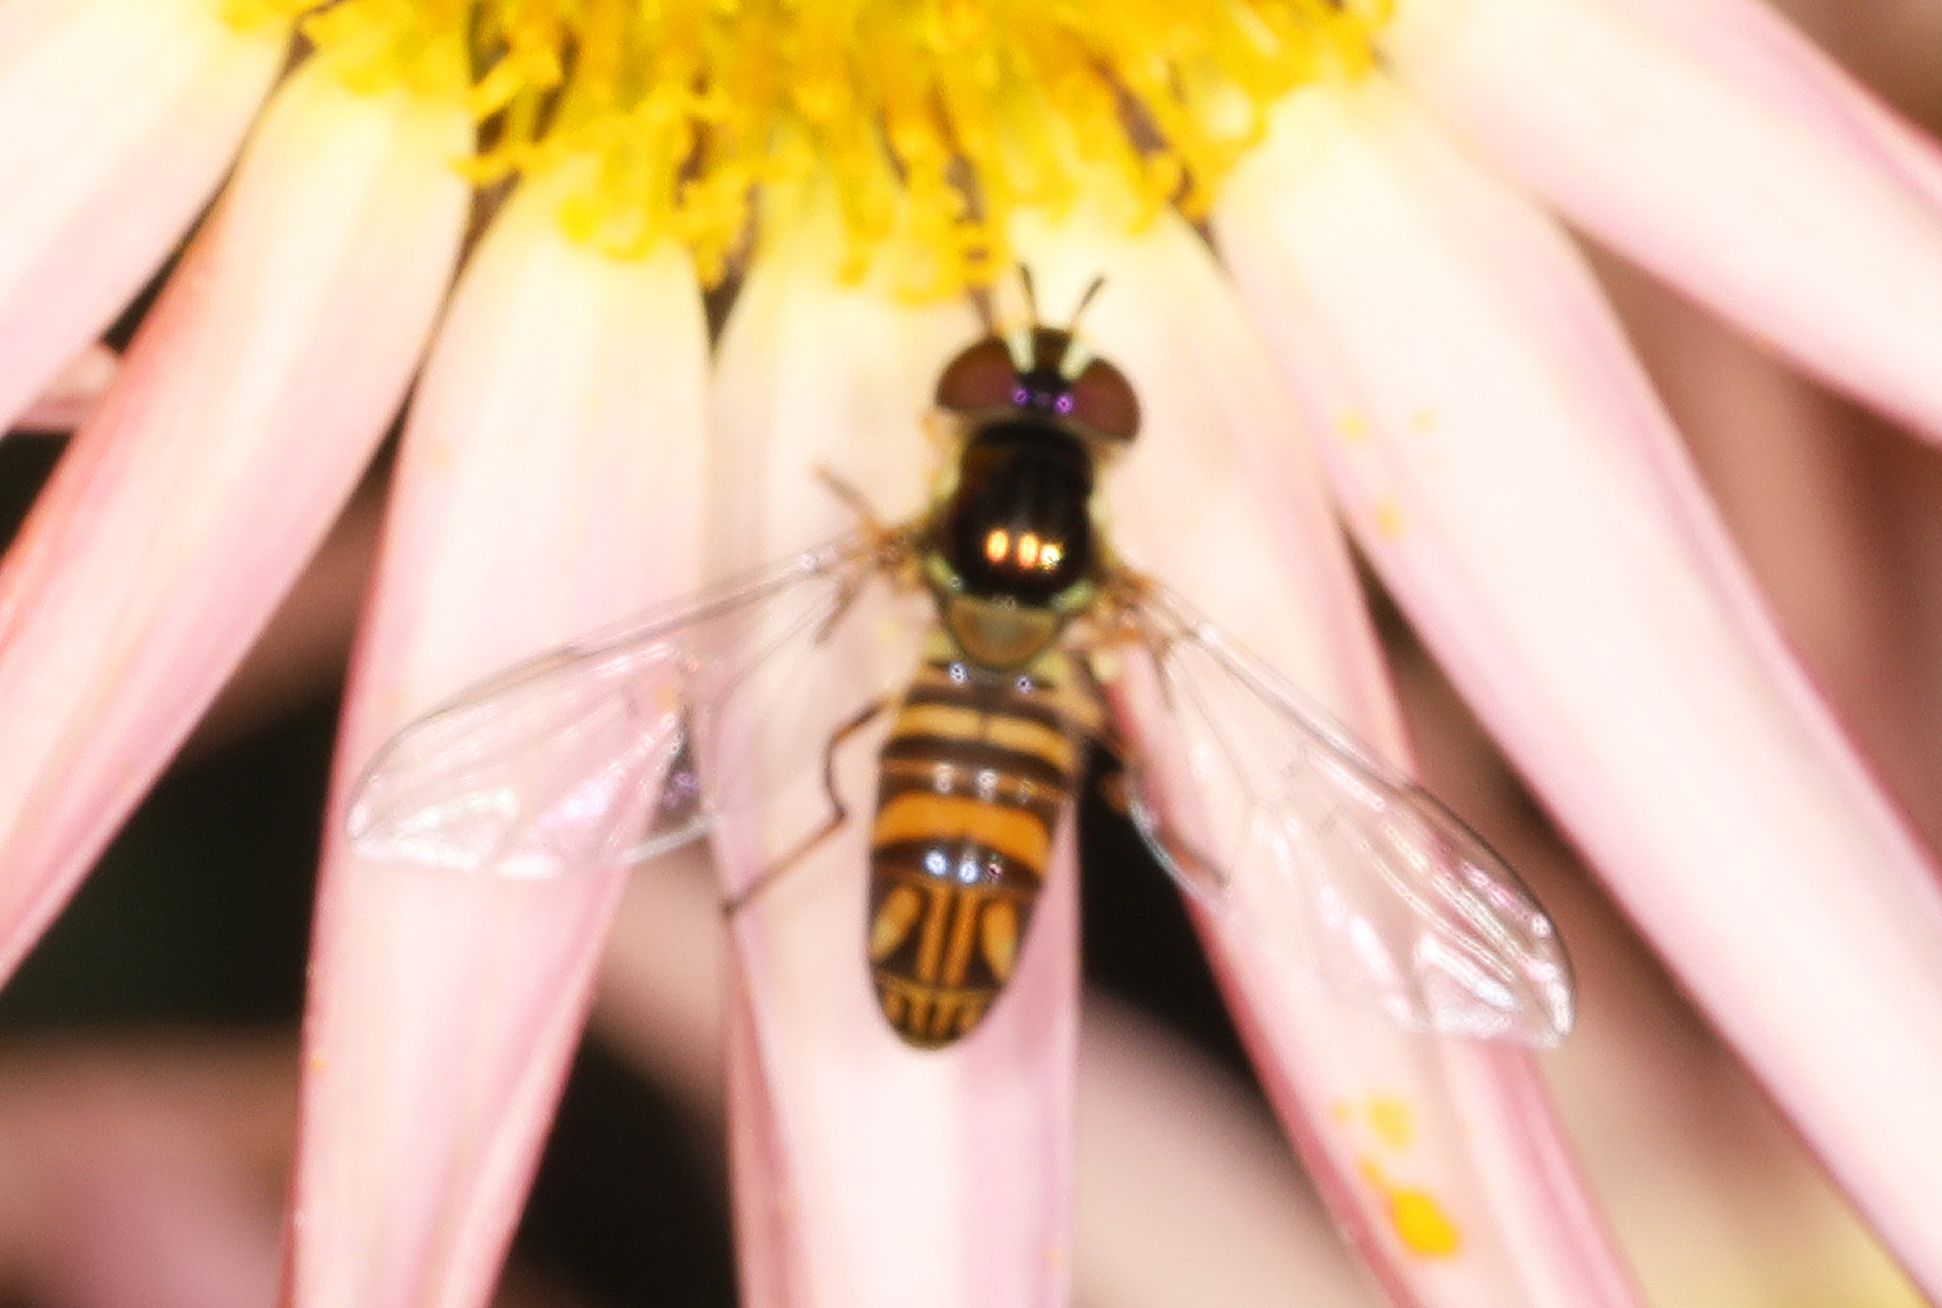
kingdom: Animalia
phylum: Arthropoda
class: Insecta
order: Diptera
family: Syrphidae
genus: Allograpta
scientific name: Allograpta obliqua
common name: Common oblique syrphid
